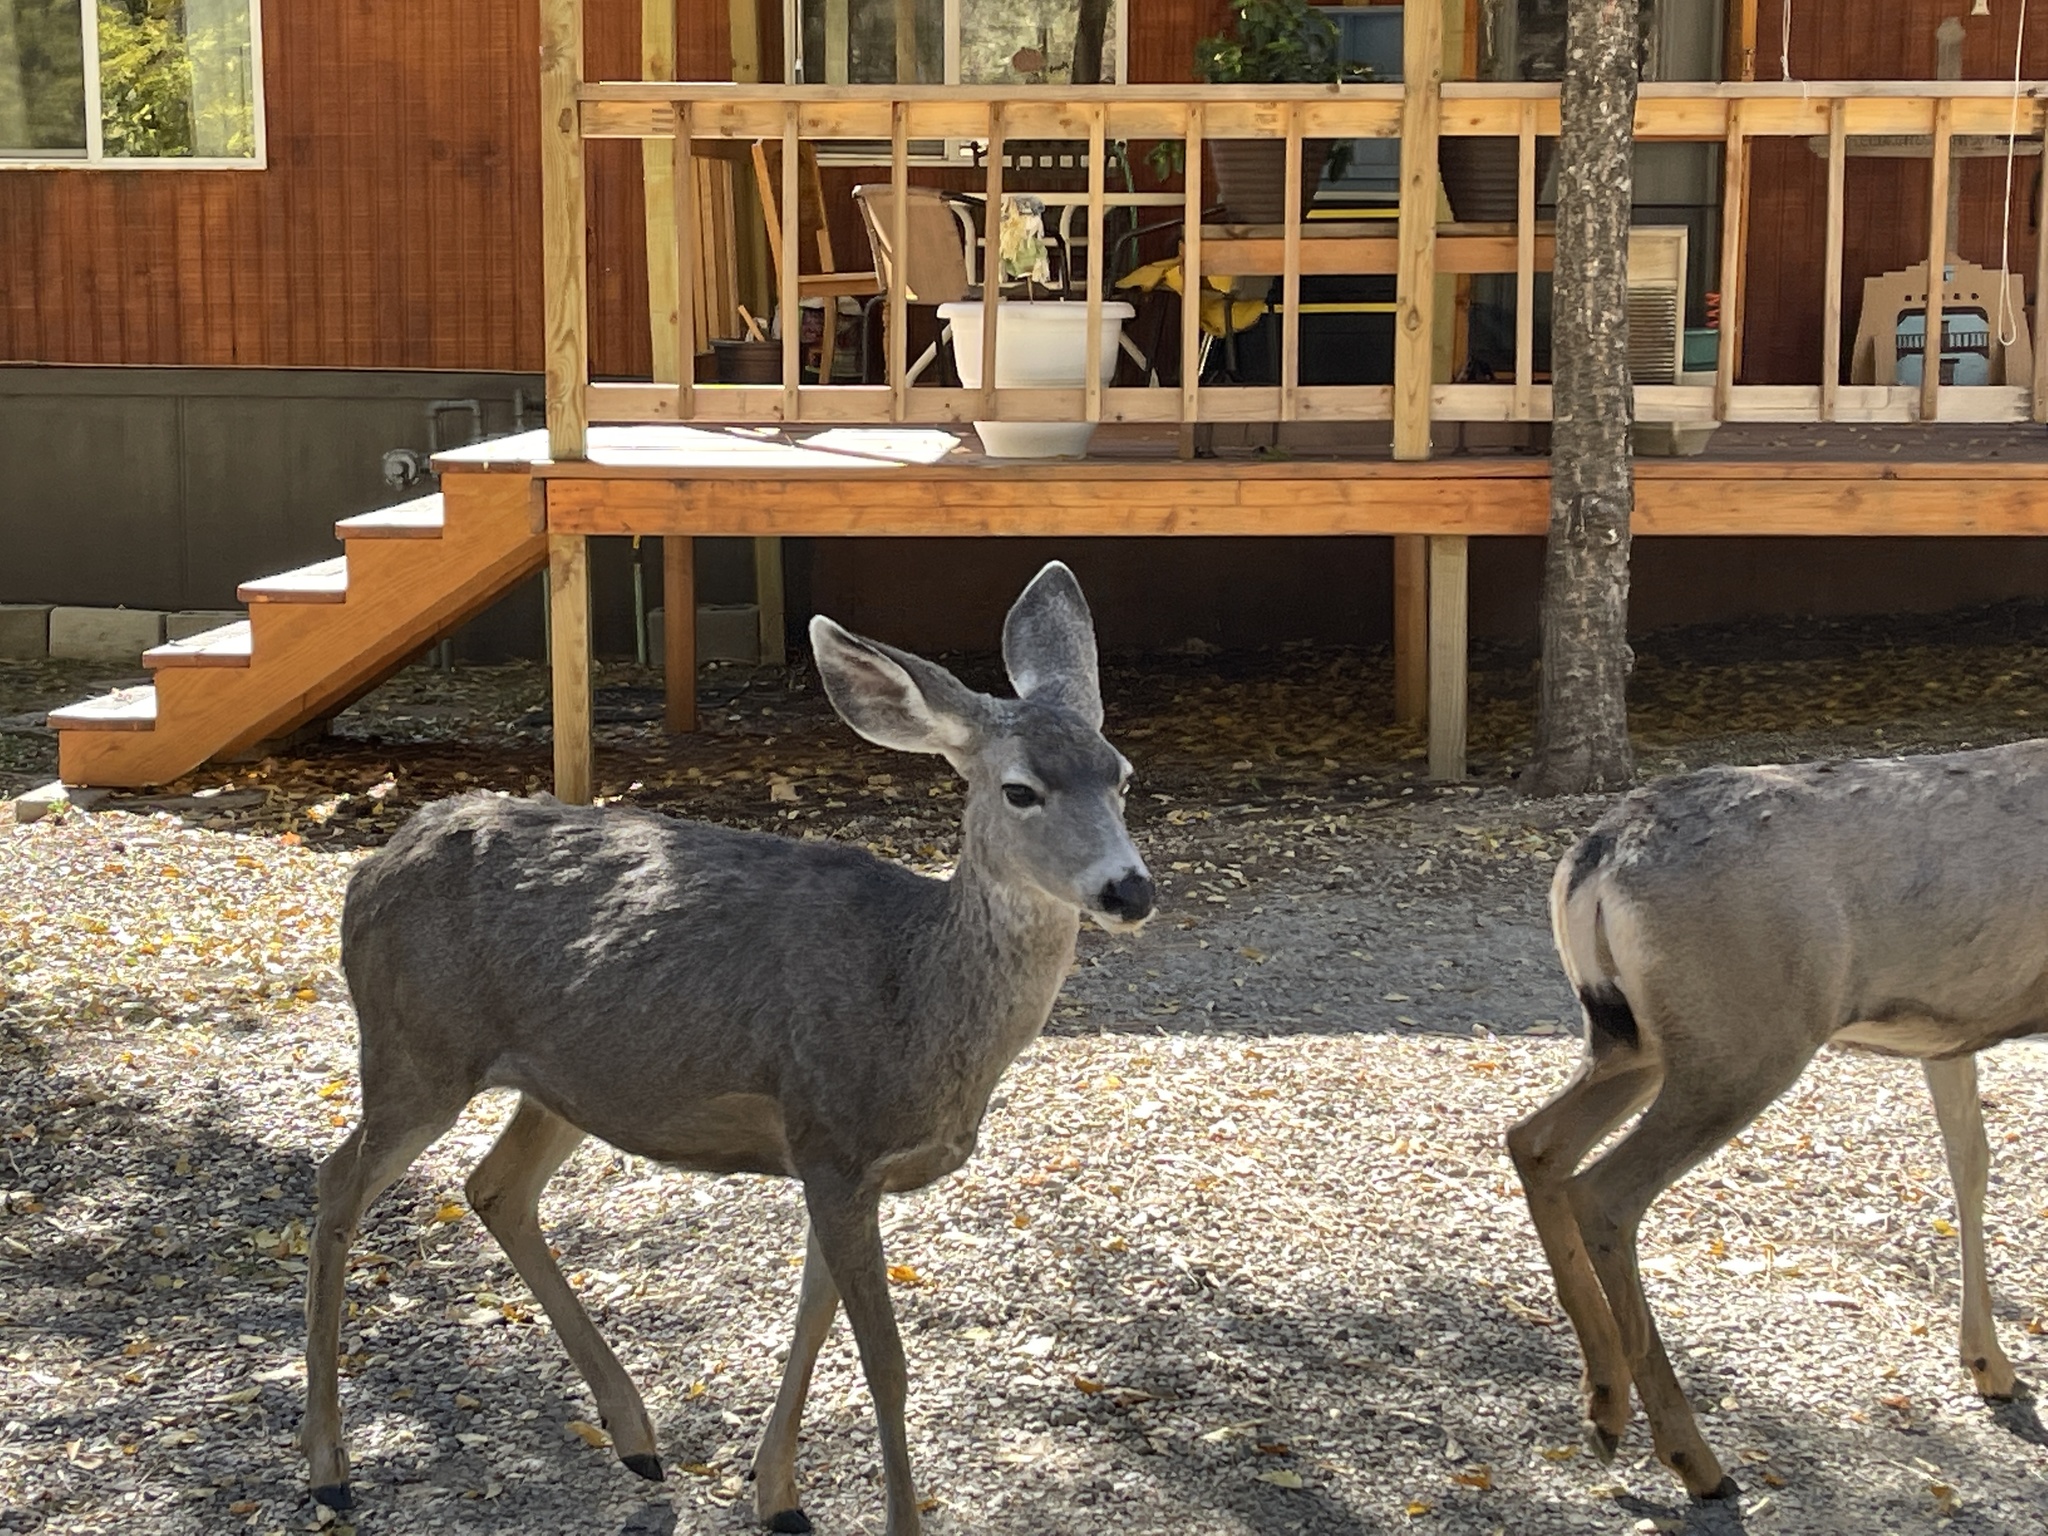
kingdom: Animalia
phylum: Chordata
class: Mammalia
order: Artiodactyla
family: Cervidae
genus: Odocoileus
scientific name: Odocoileus hemionus
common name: Mule deer
